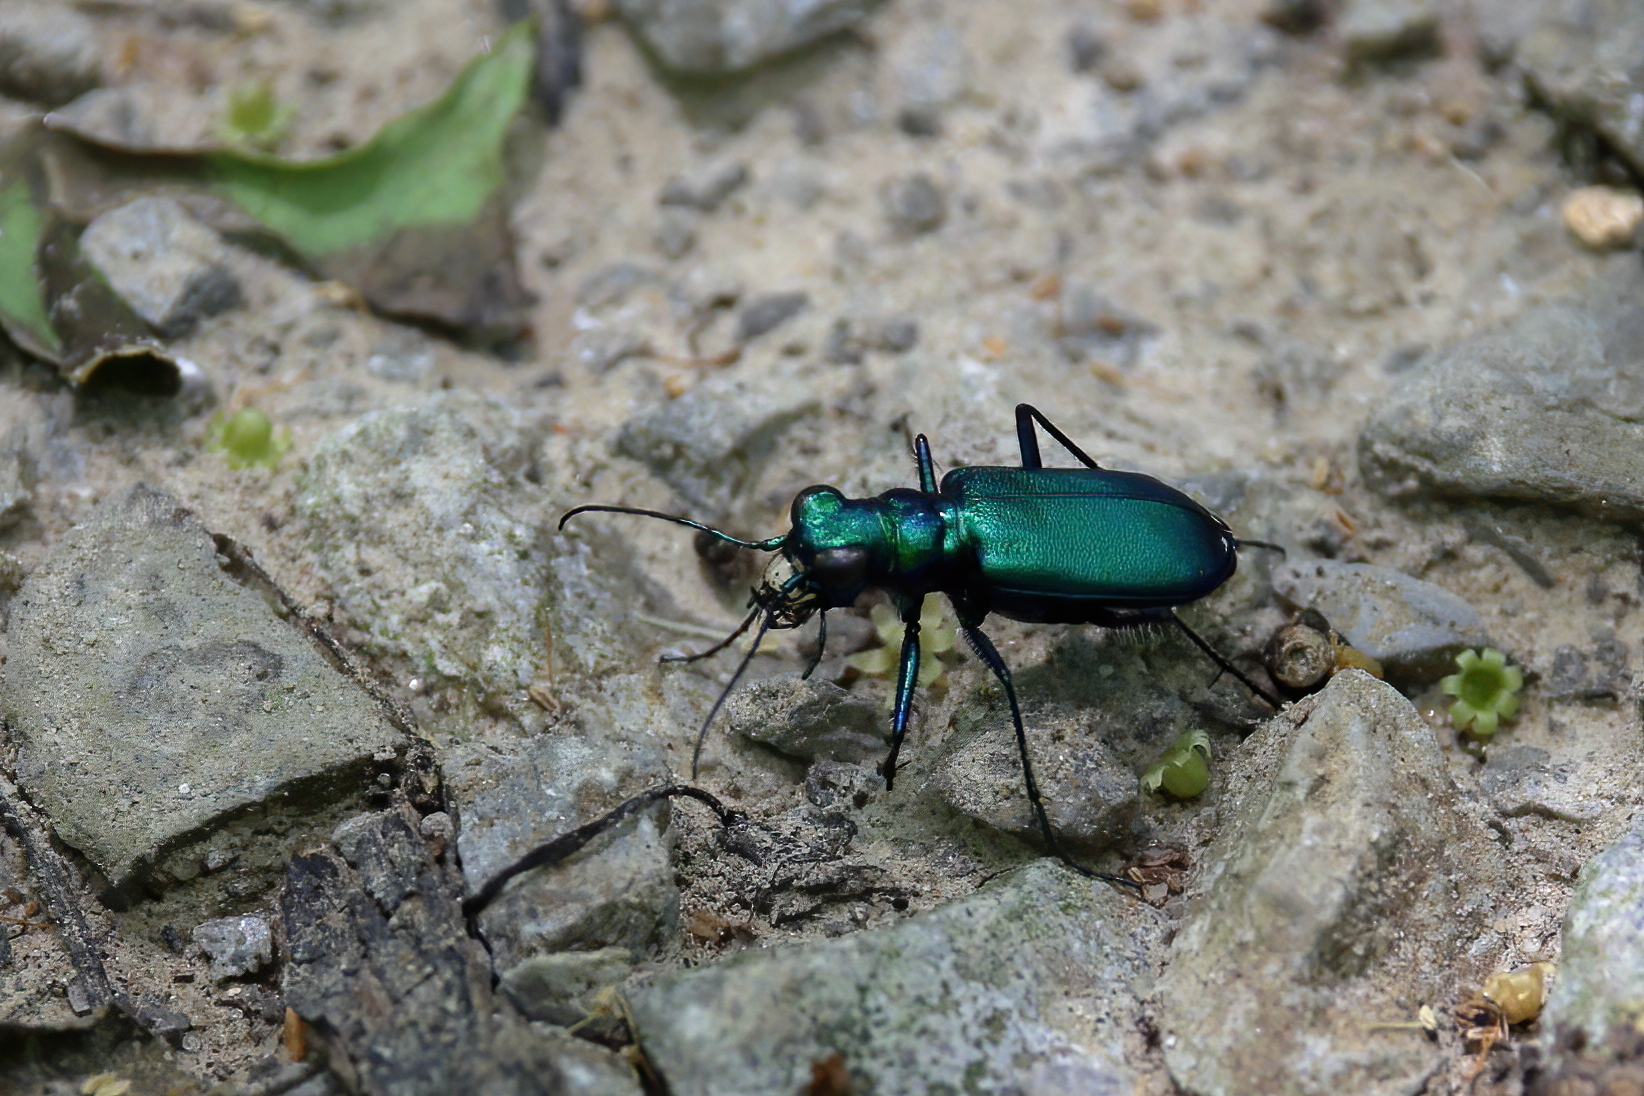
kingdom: Animalia
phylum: Arthropoda
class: Insecta
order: Coleoptera
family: Carabidae
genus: Cicindela
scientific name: Cicindela sexguttata
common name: Six-spotted tiger beetle
